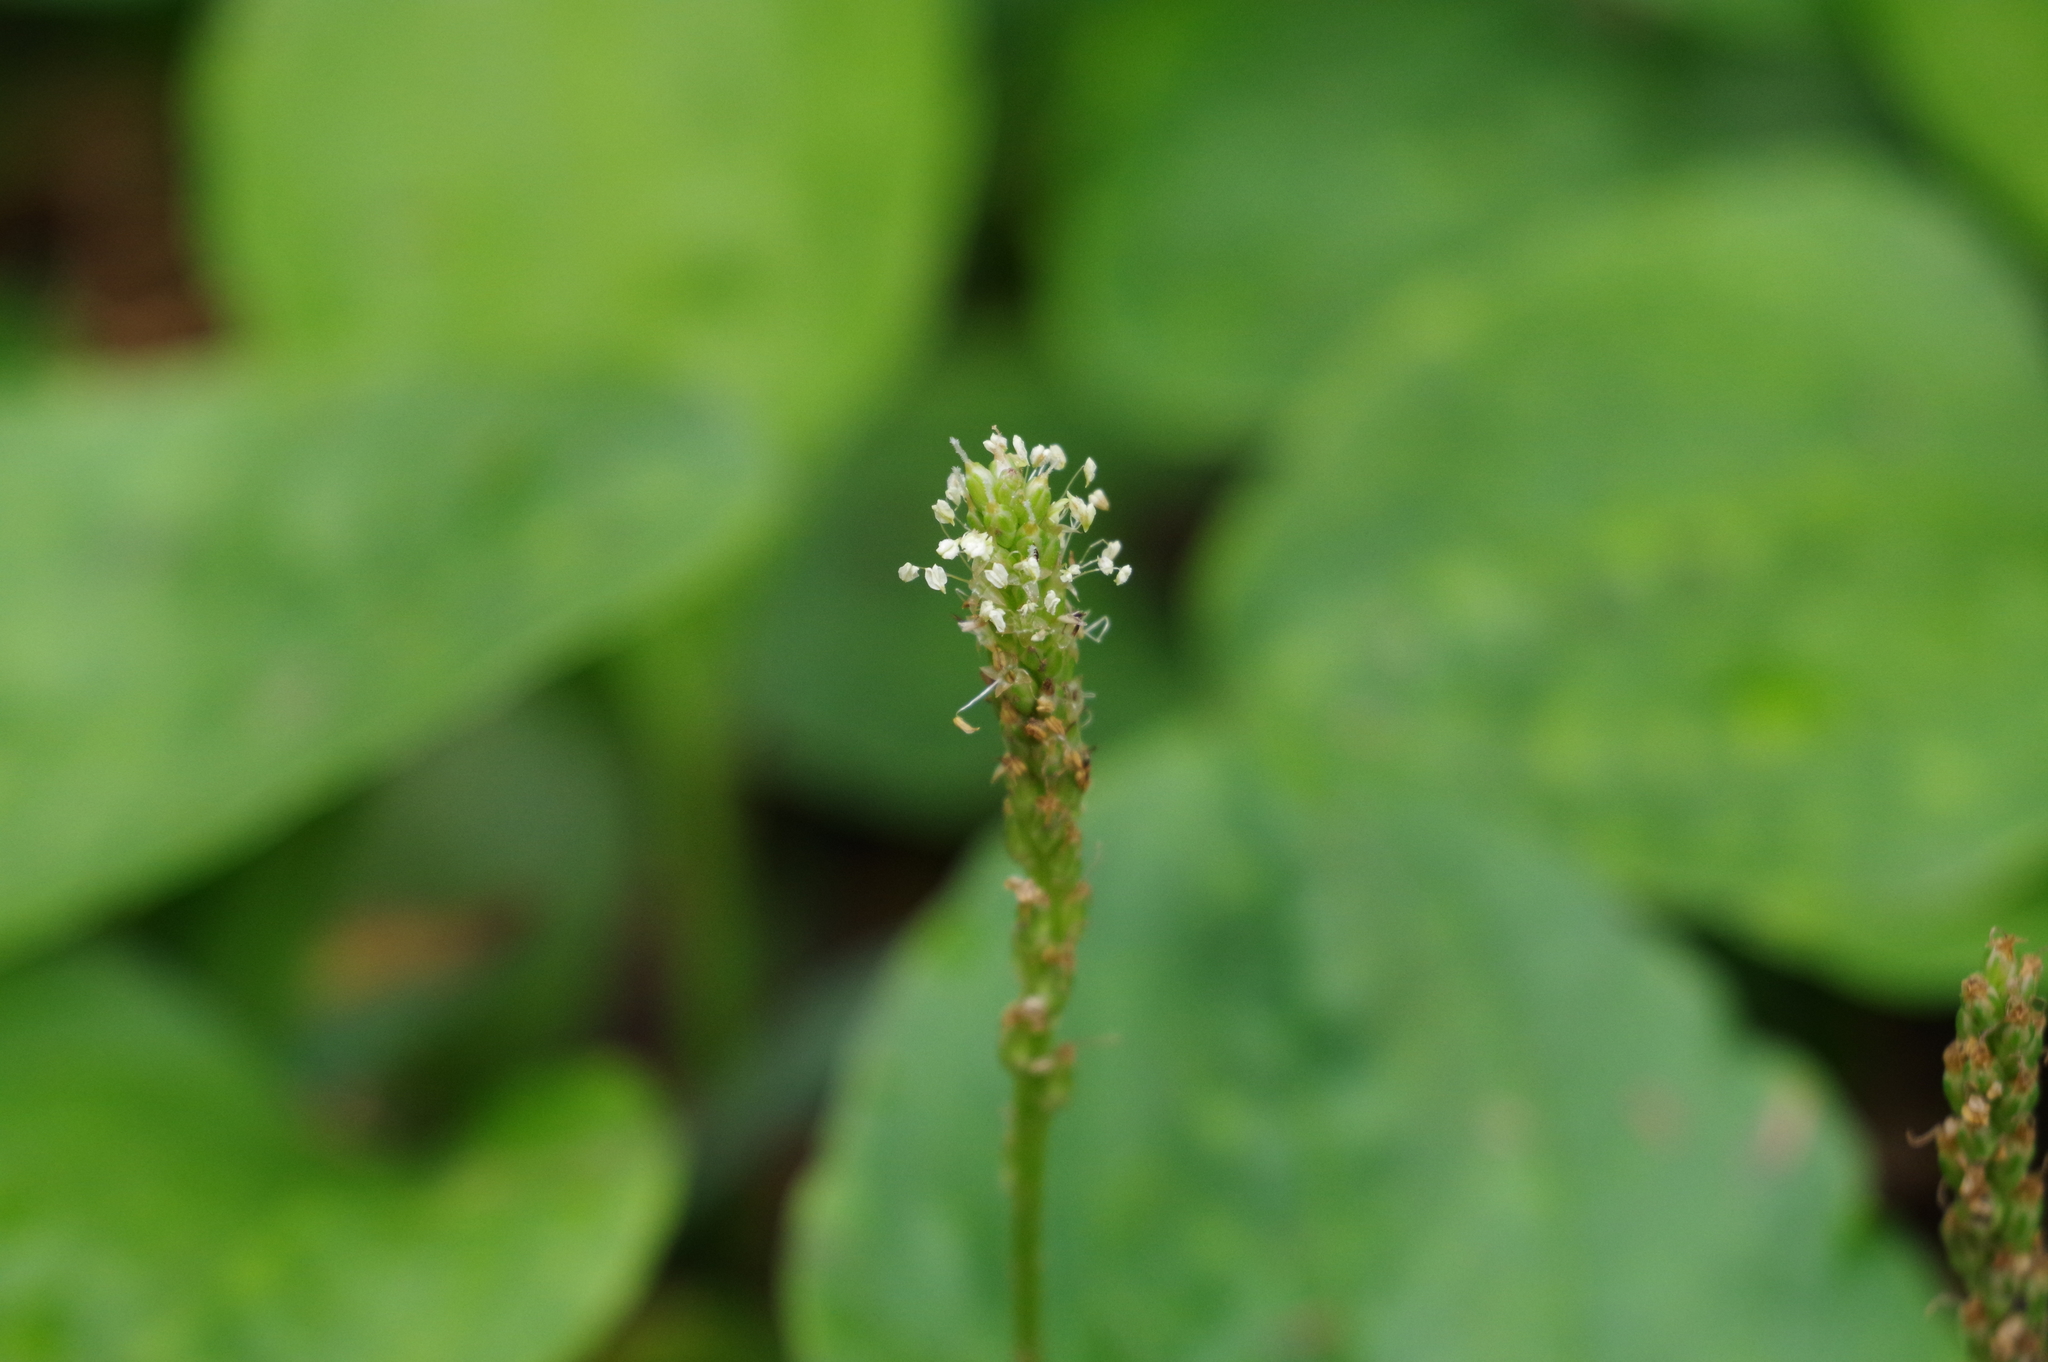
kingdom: Plantae
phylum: Tracheophyta
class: Magnoliopsida
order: Lamiales
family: Plantaginaceae
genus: Plantago
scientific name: Plantago asiatica
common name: Psyllium
